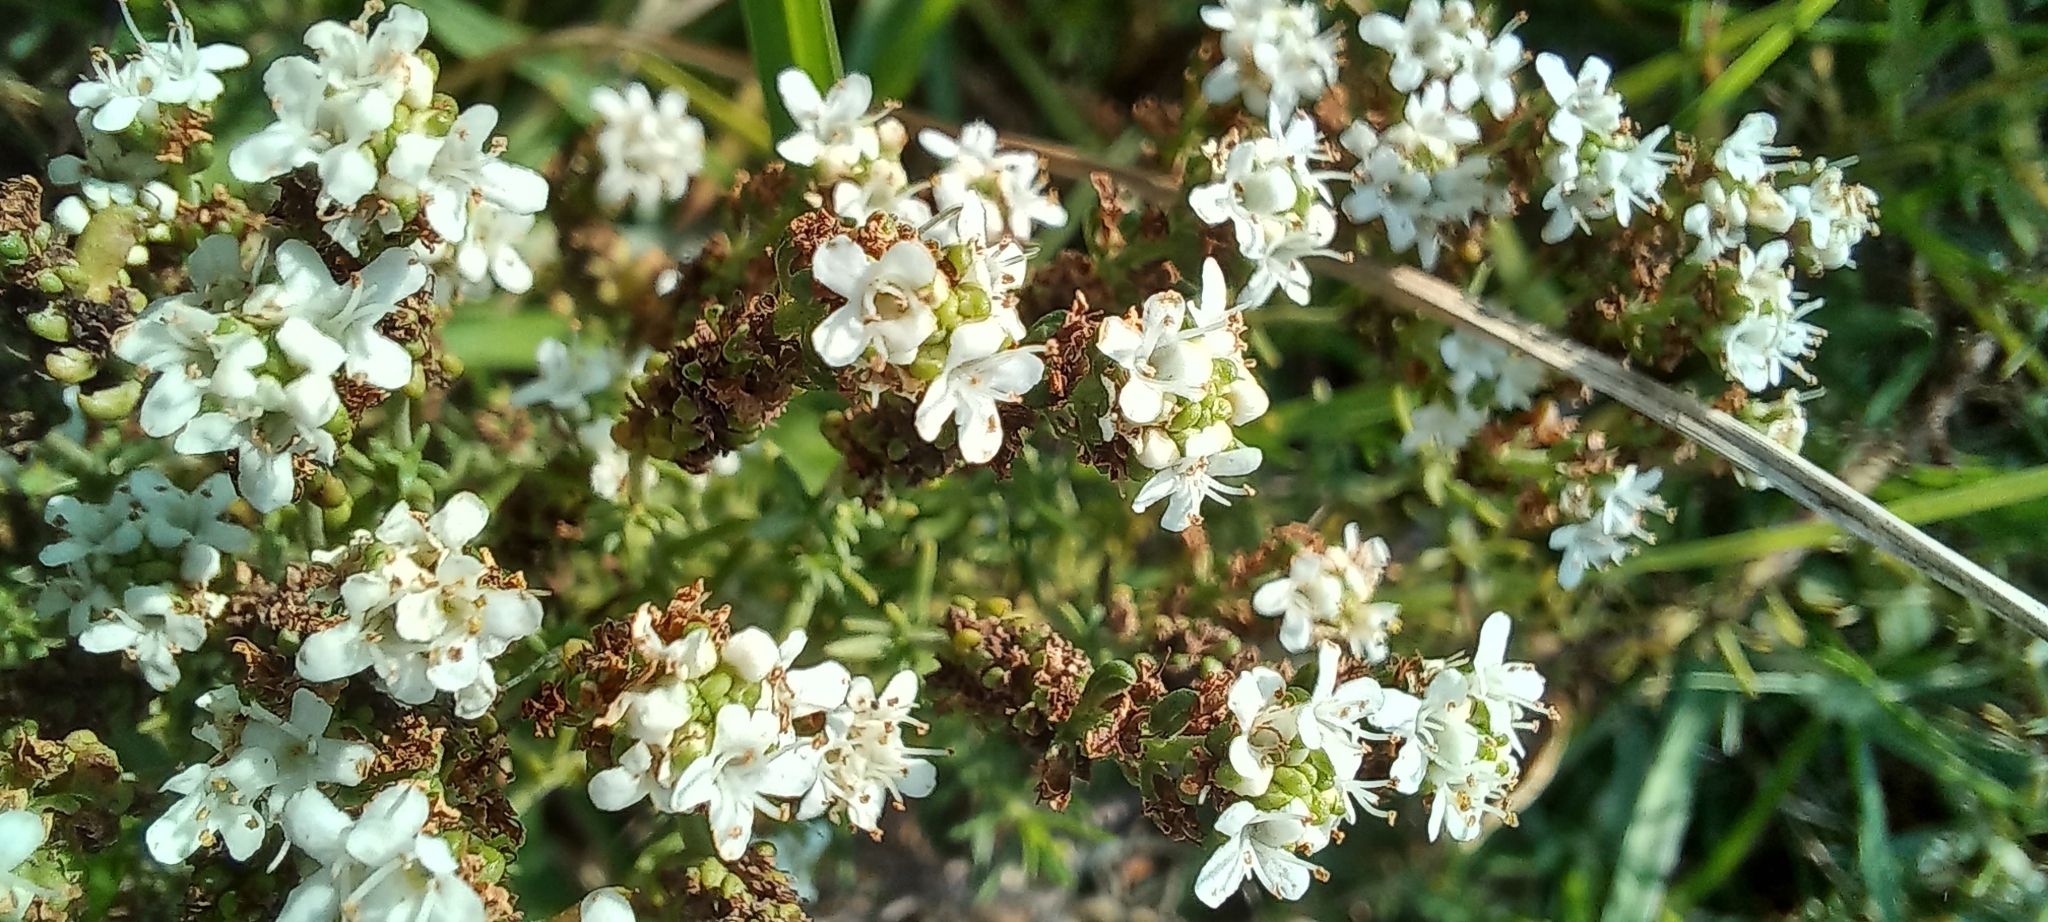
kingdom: Plantae
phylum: Tracheophyta
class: Magnoliopsida
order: Lamiales
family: Scrophulariaceae
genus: Selago
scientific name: Selago densiflora
